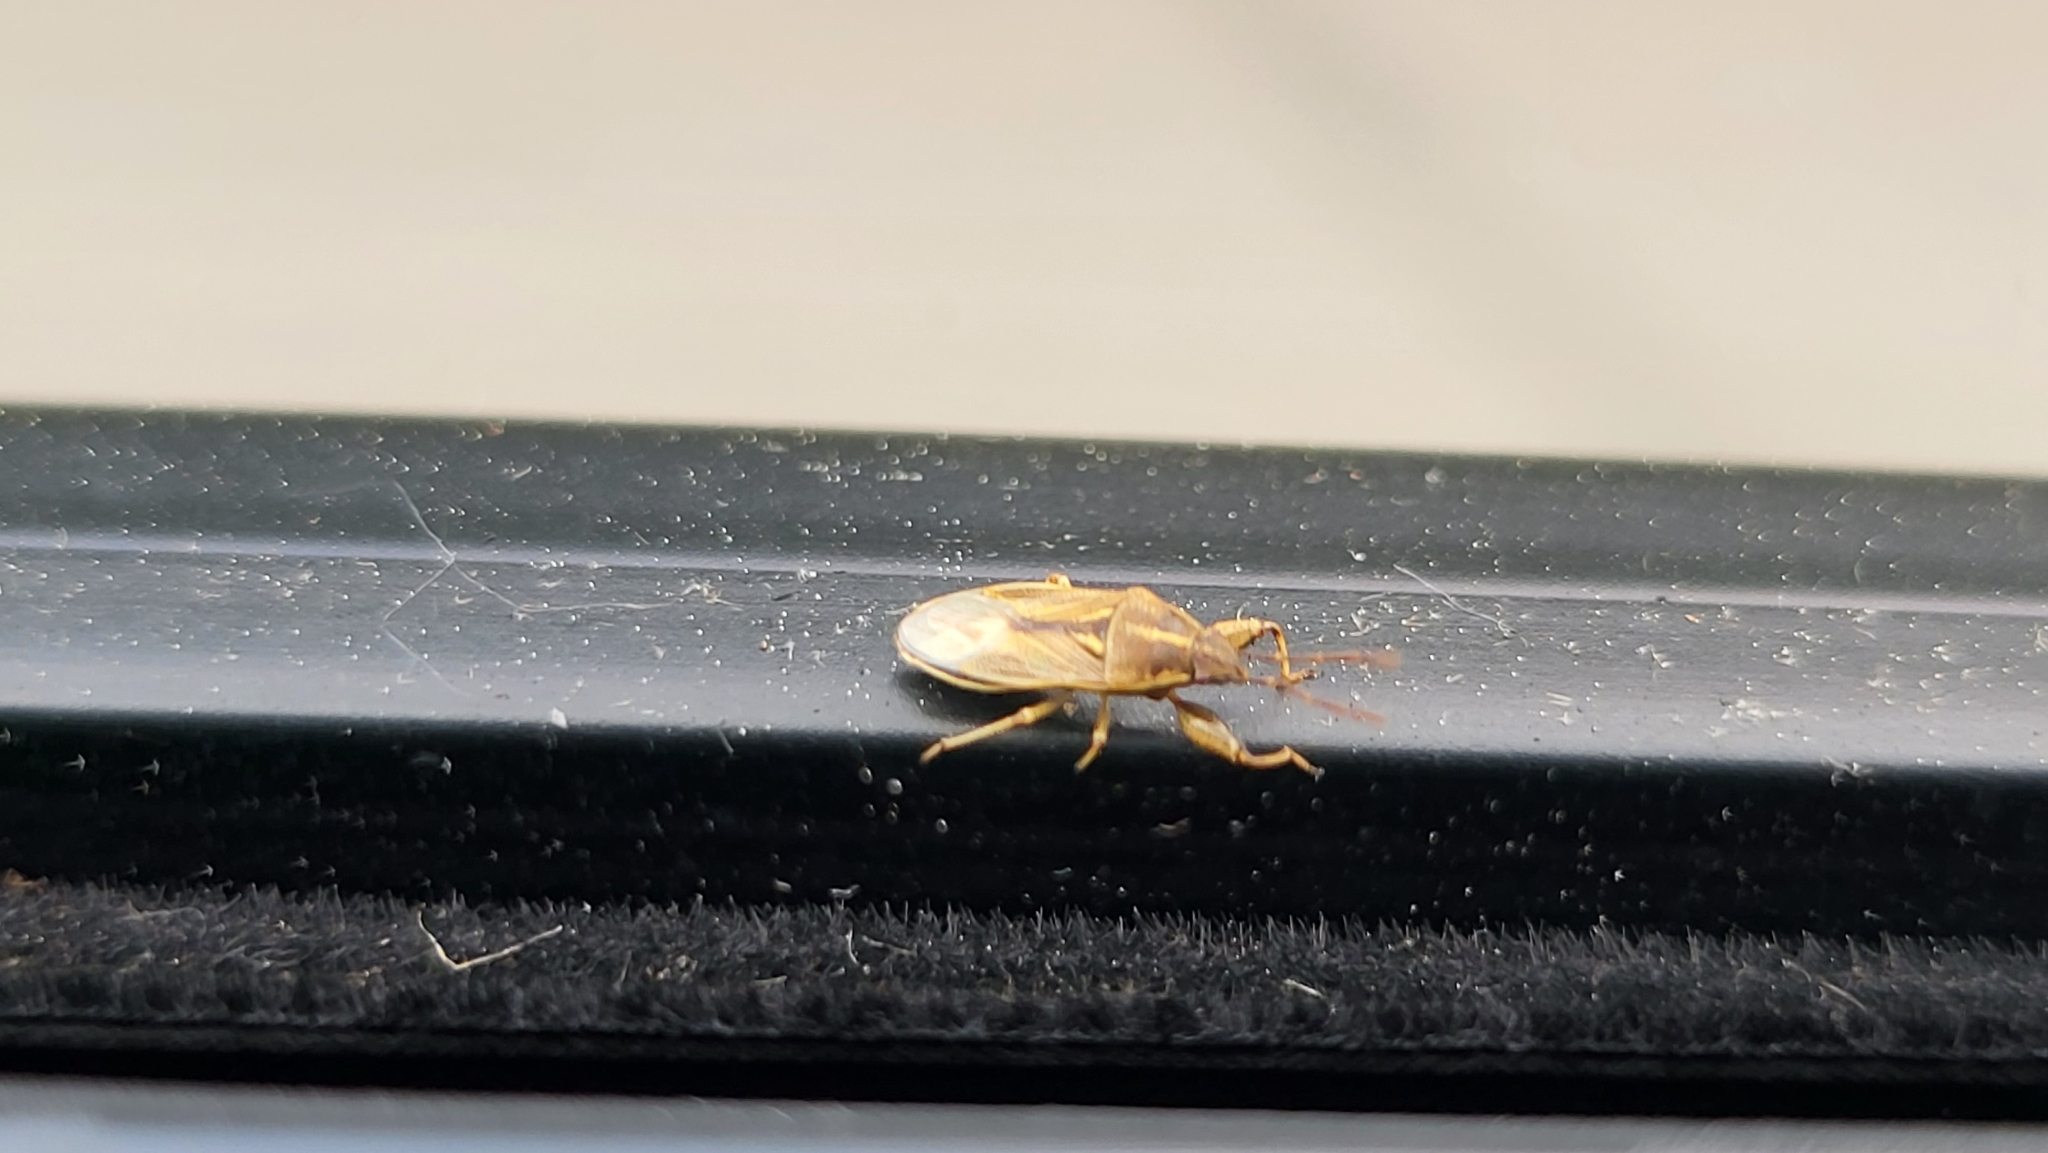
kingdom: Animalia
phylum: Arthropoda
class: Insecta
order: Hemiptera
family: Pachygronthidae
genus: Oedancala
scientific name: Oedancala dorsalis
